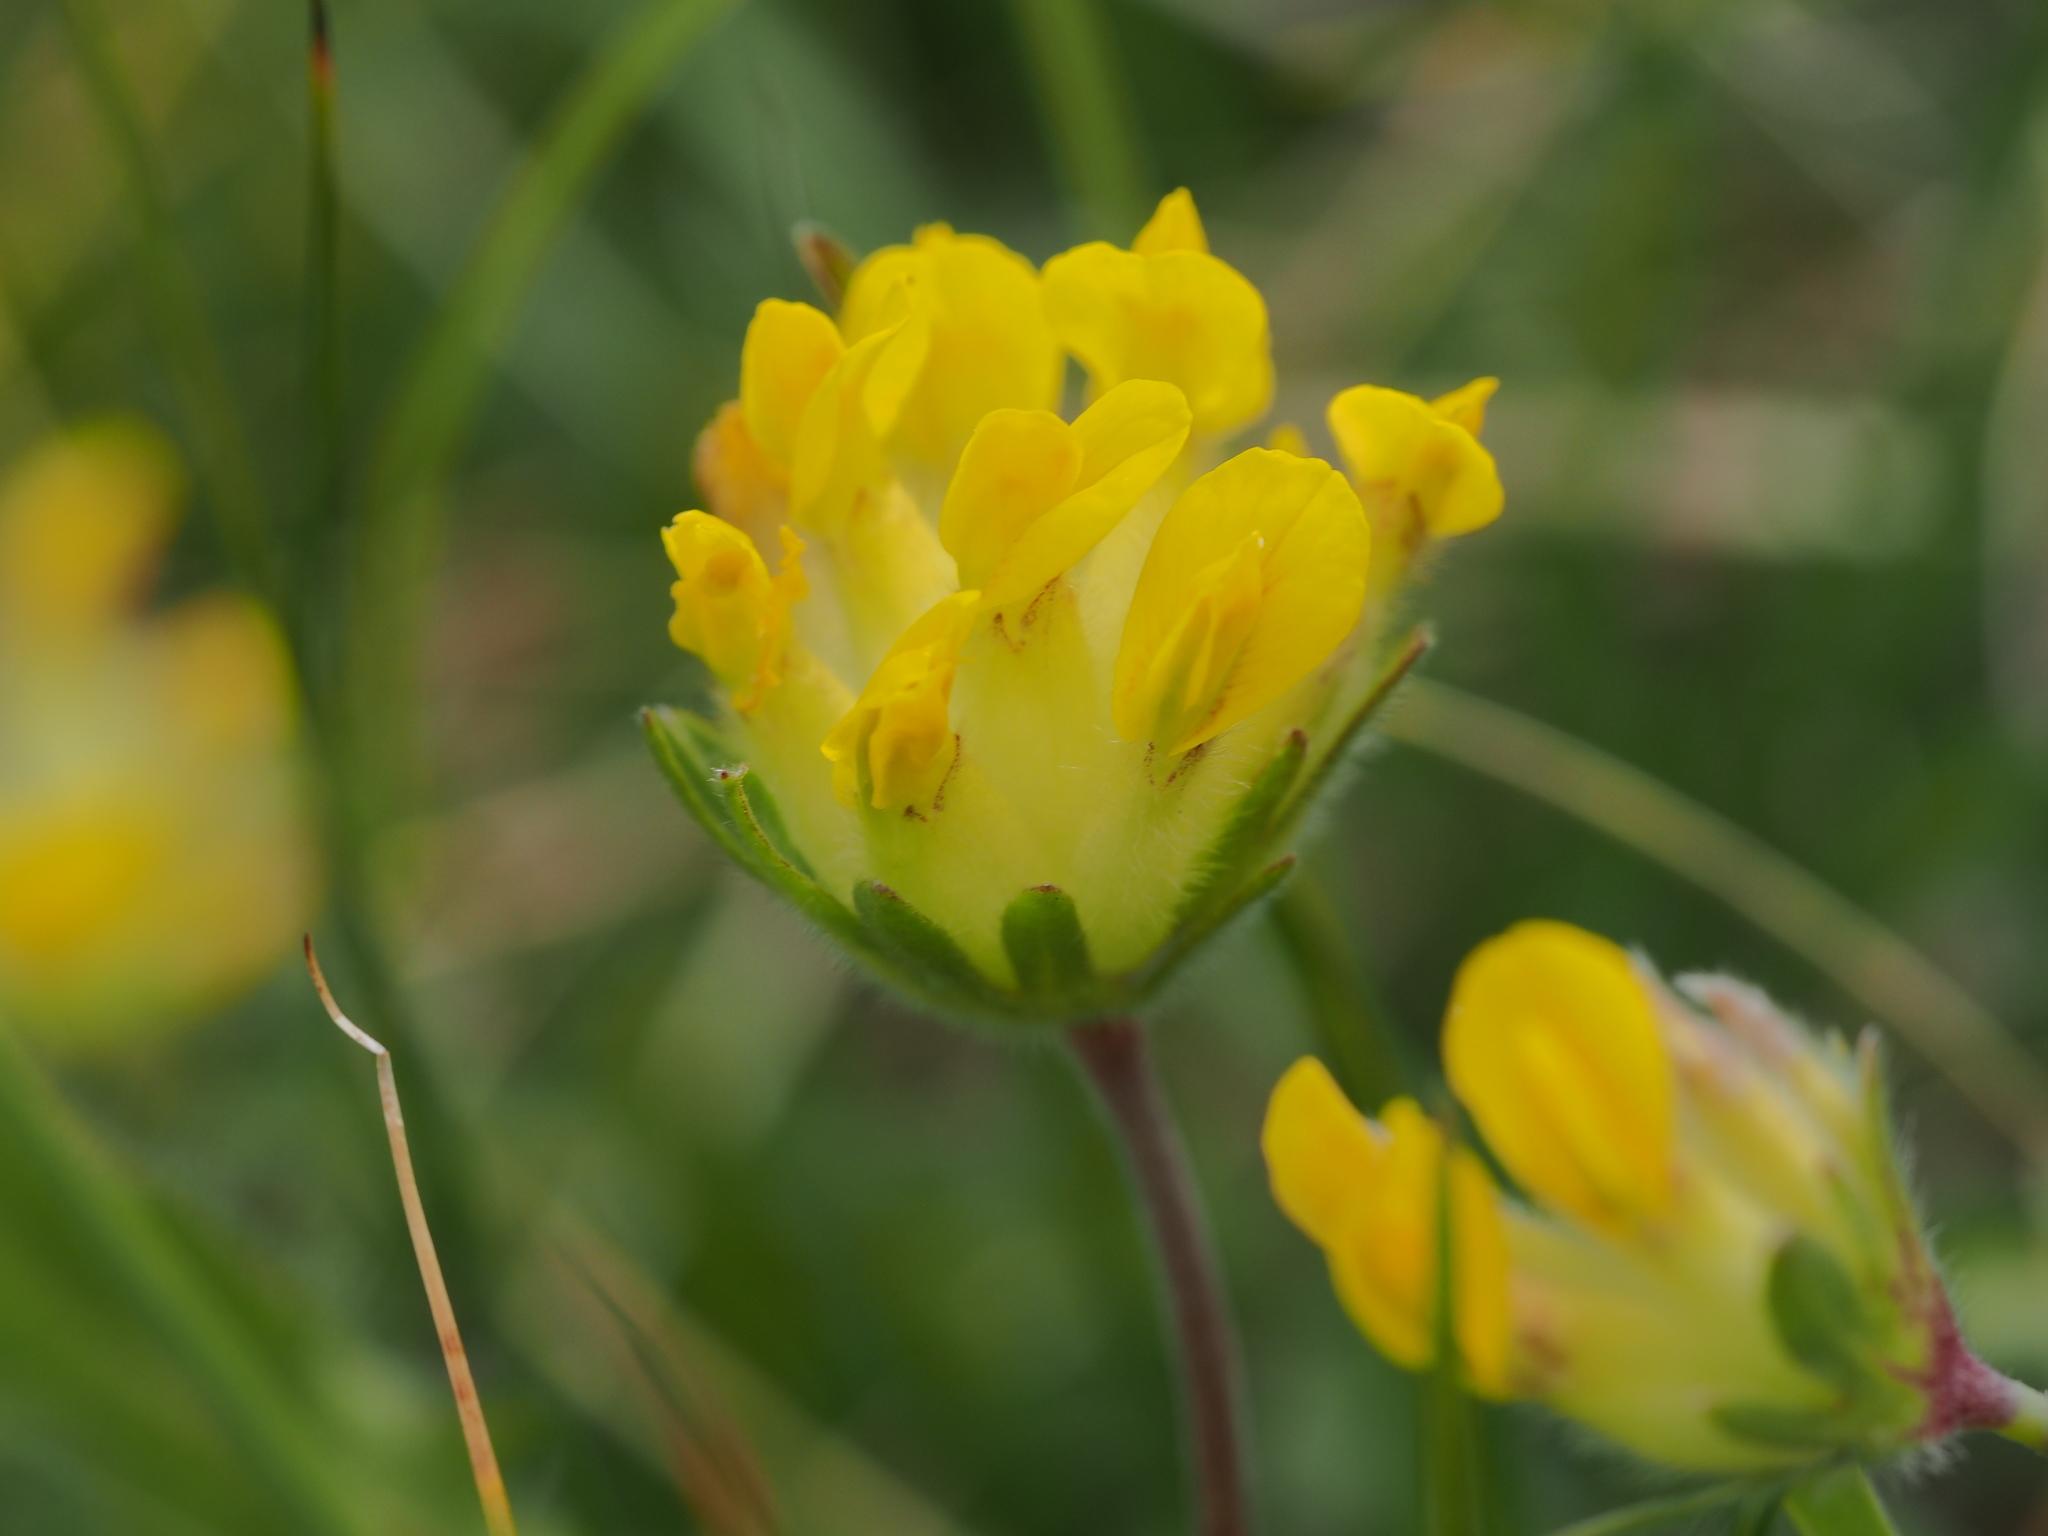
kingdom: Plantae
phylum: Tracheophyta
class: Magnoliopsida
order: Fabales
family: Fabaceae
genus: Anthyllis
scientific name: Anthyllis vulneraria
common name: Kidney vetch
